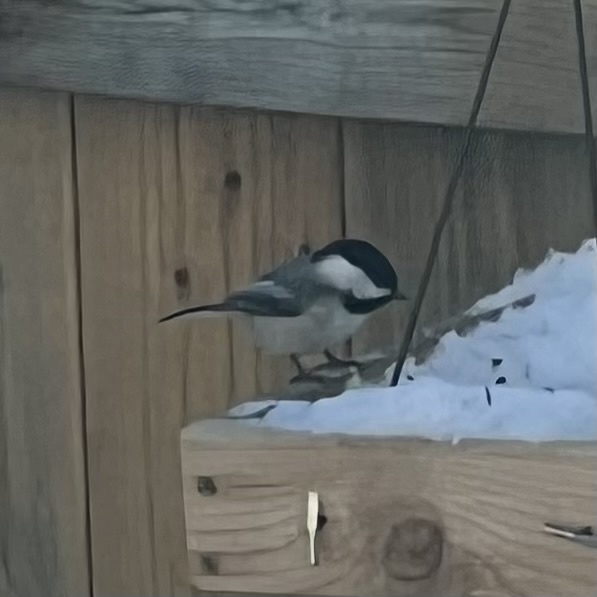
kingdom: Animalia
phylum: Chordata
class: Aves
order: Passeriformes
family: Paridae
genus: Poecile
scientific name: Poecile atricapillus
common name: Black-capped chickadee
